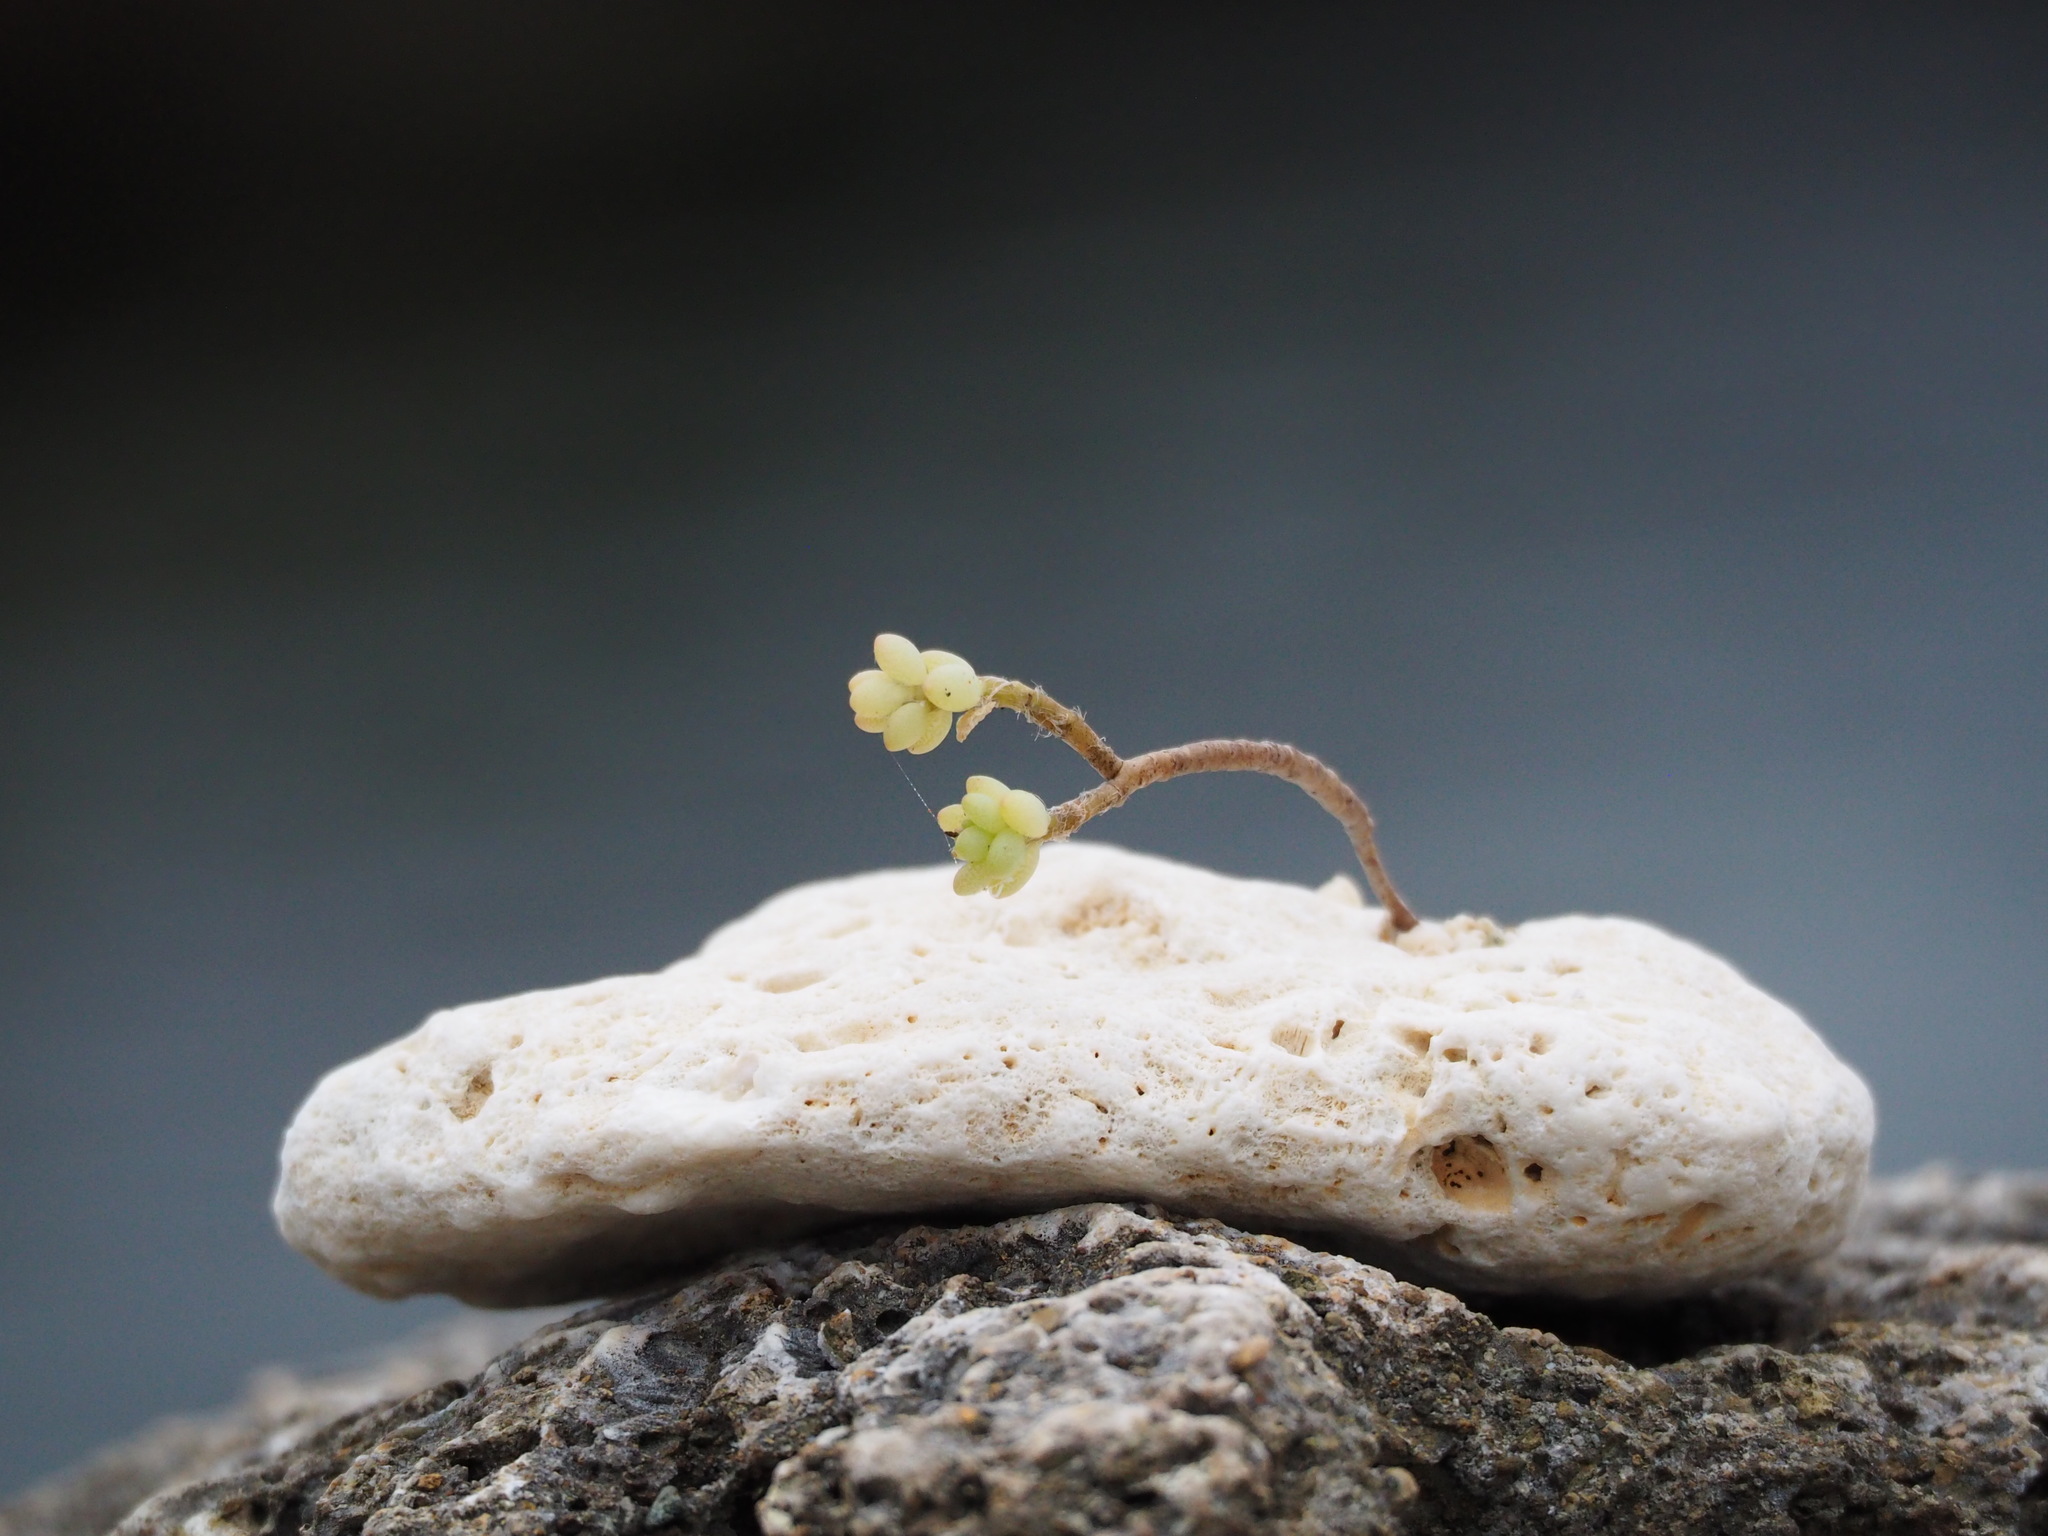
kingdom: Plantae
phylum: Tracheophyta
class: Magnoliopsida
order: Caryophyllales
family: Portulacaceae
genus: Portulaca
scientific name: Portulaca psammotropha
